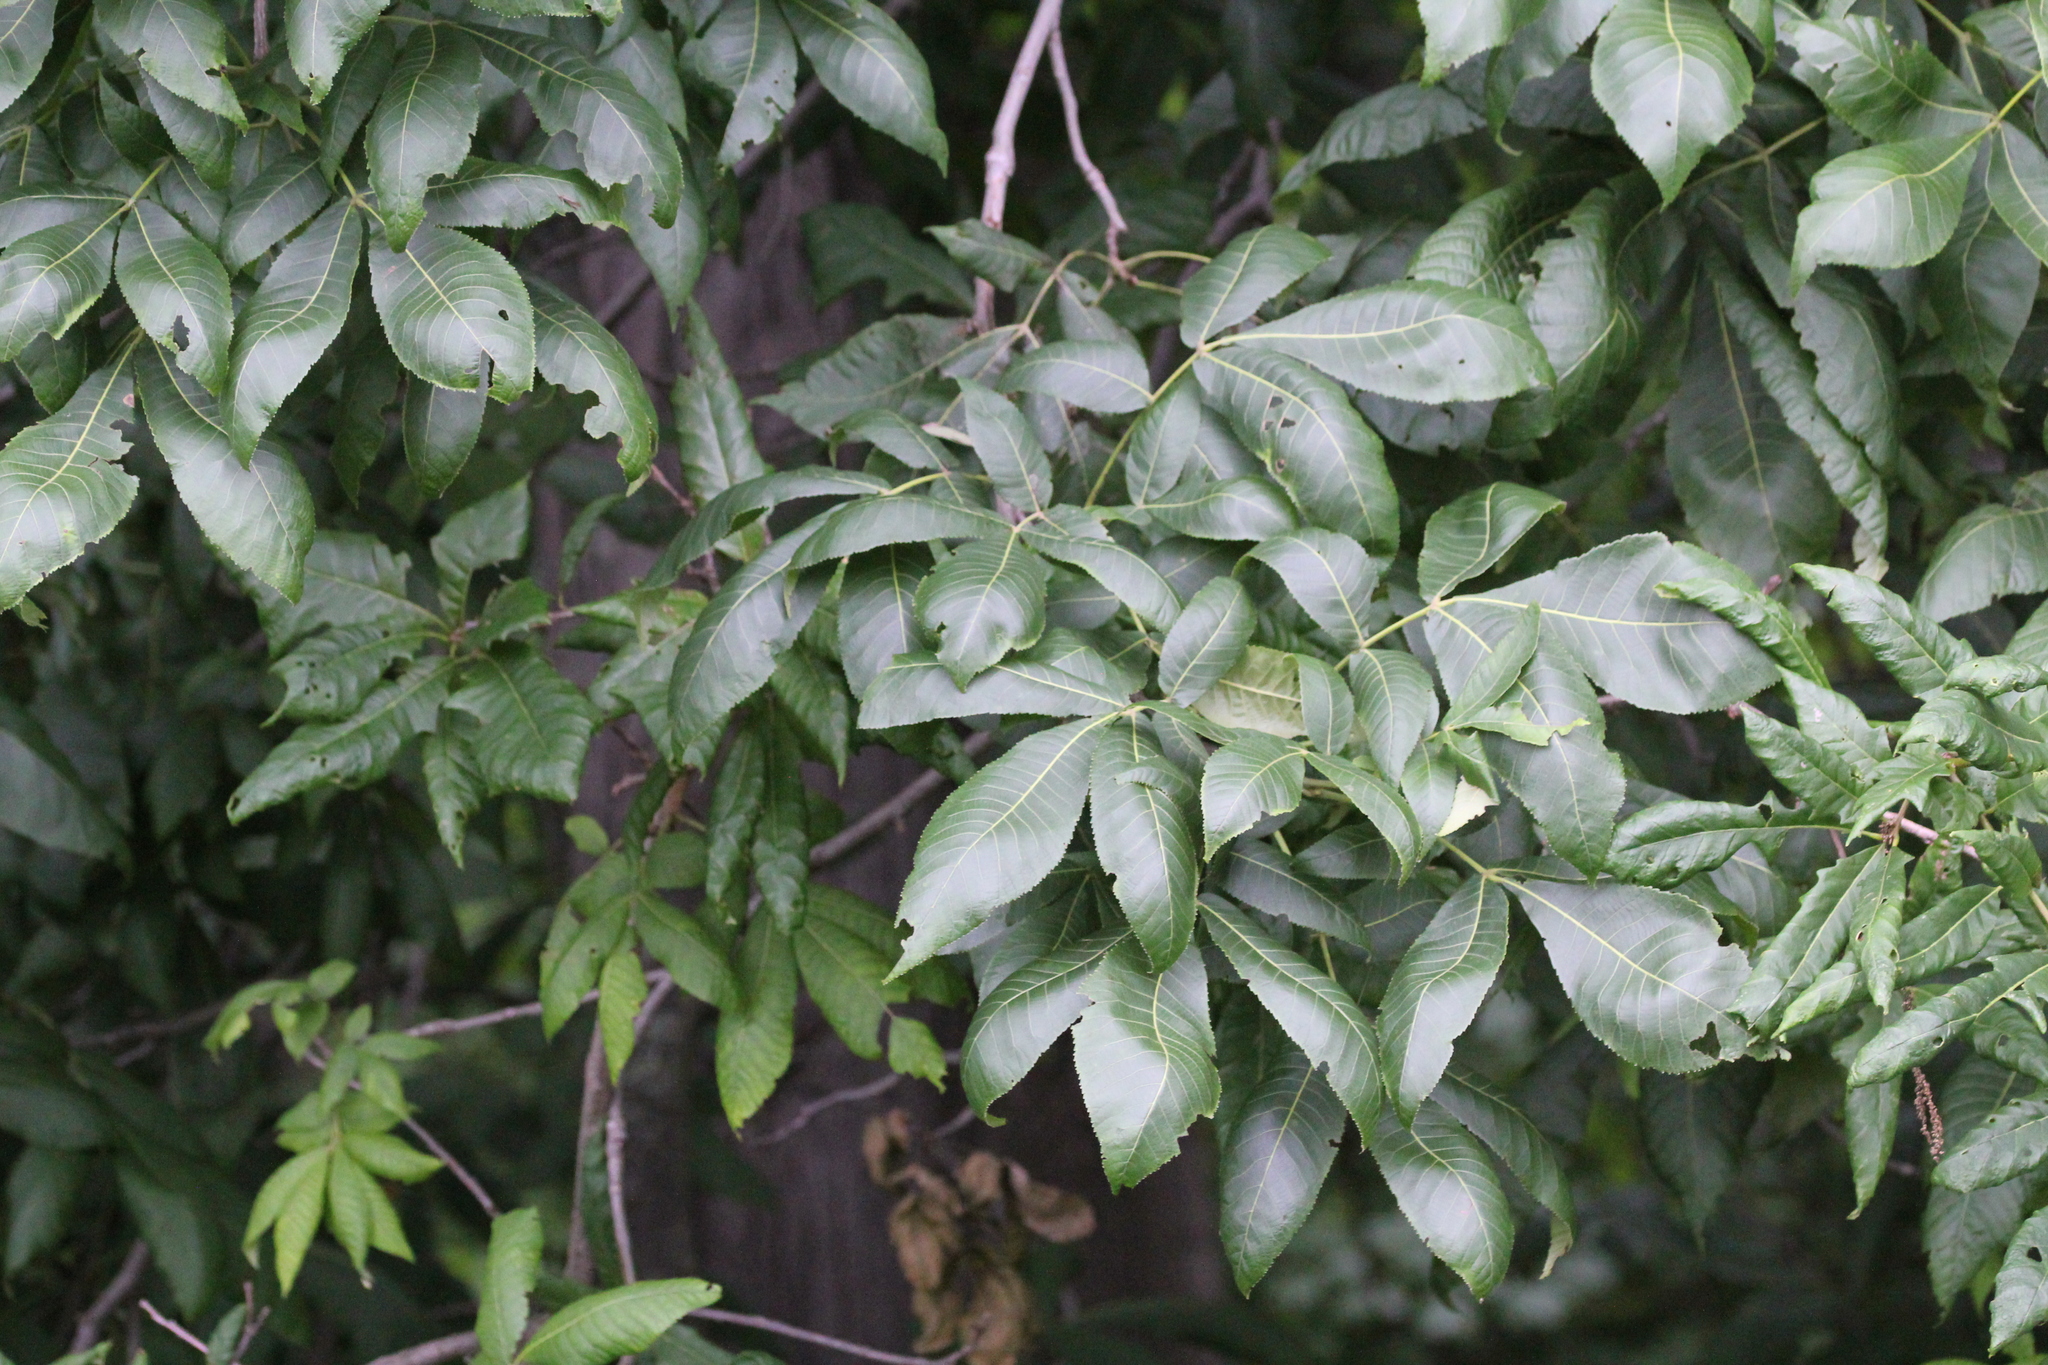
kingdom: Plantae
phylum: Tracheophyta
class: Magnoliopsida
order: Fagales
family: Juglandaceae
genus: Carya
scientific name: Carya ovata
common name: Shagbark hickory
